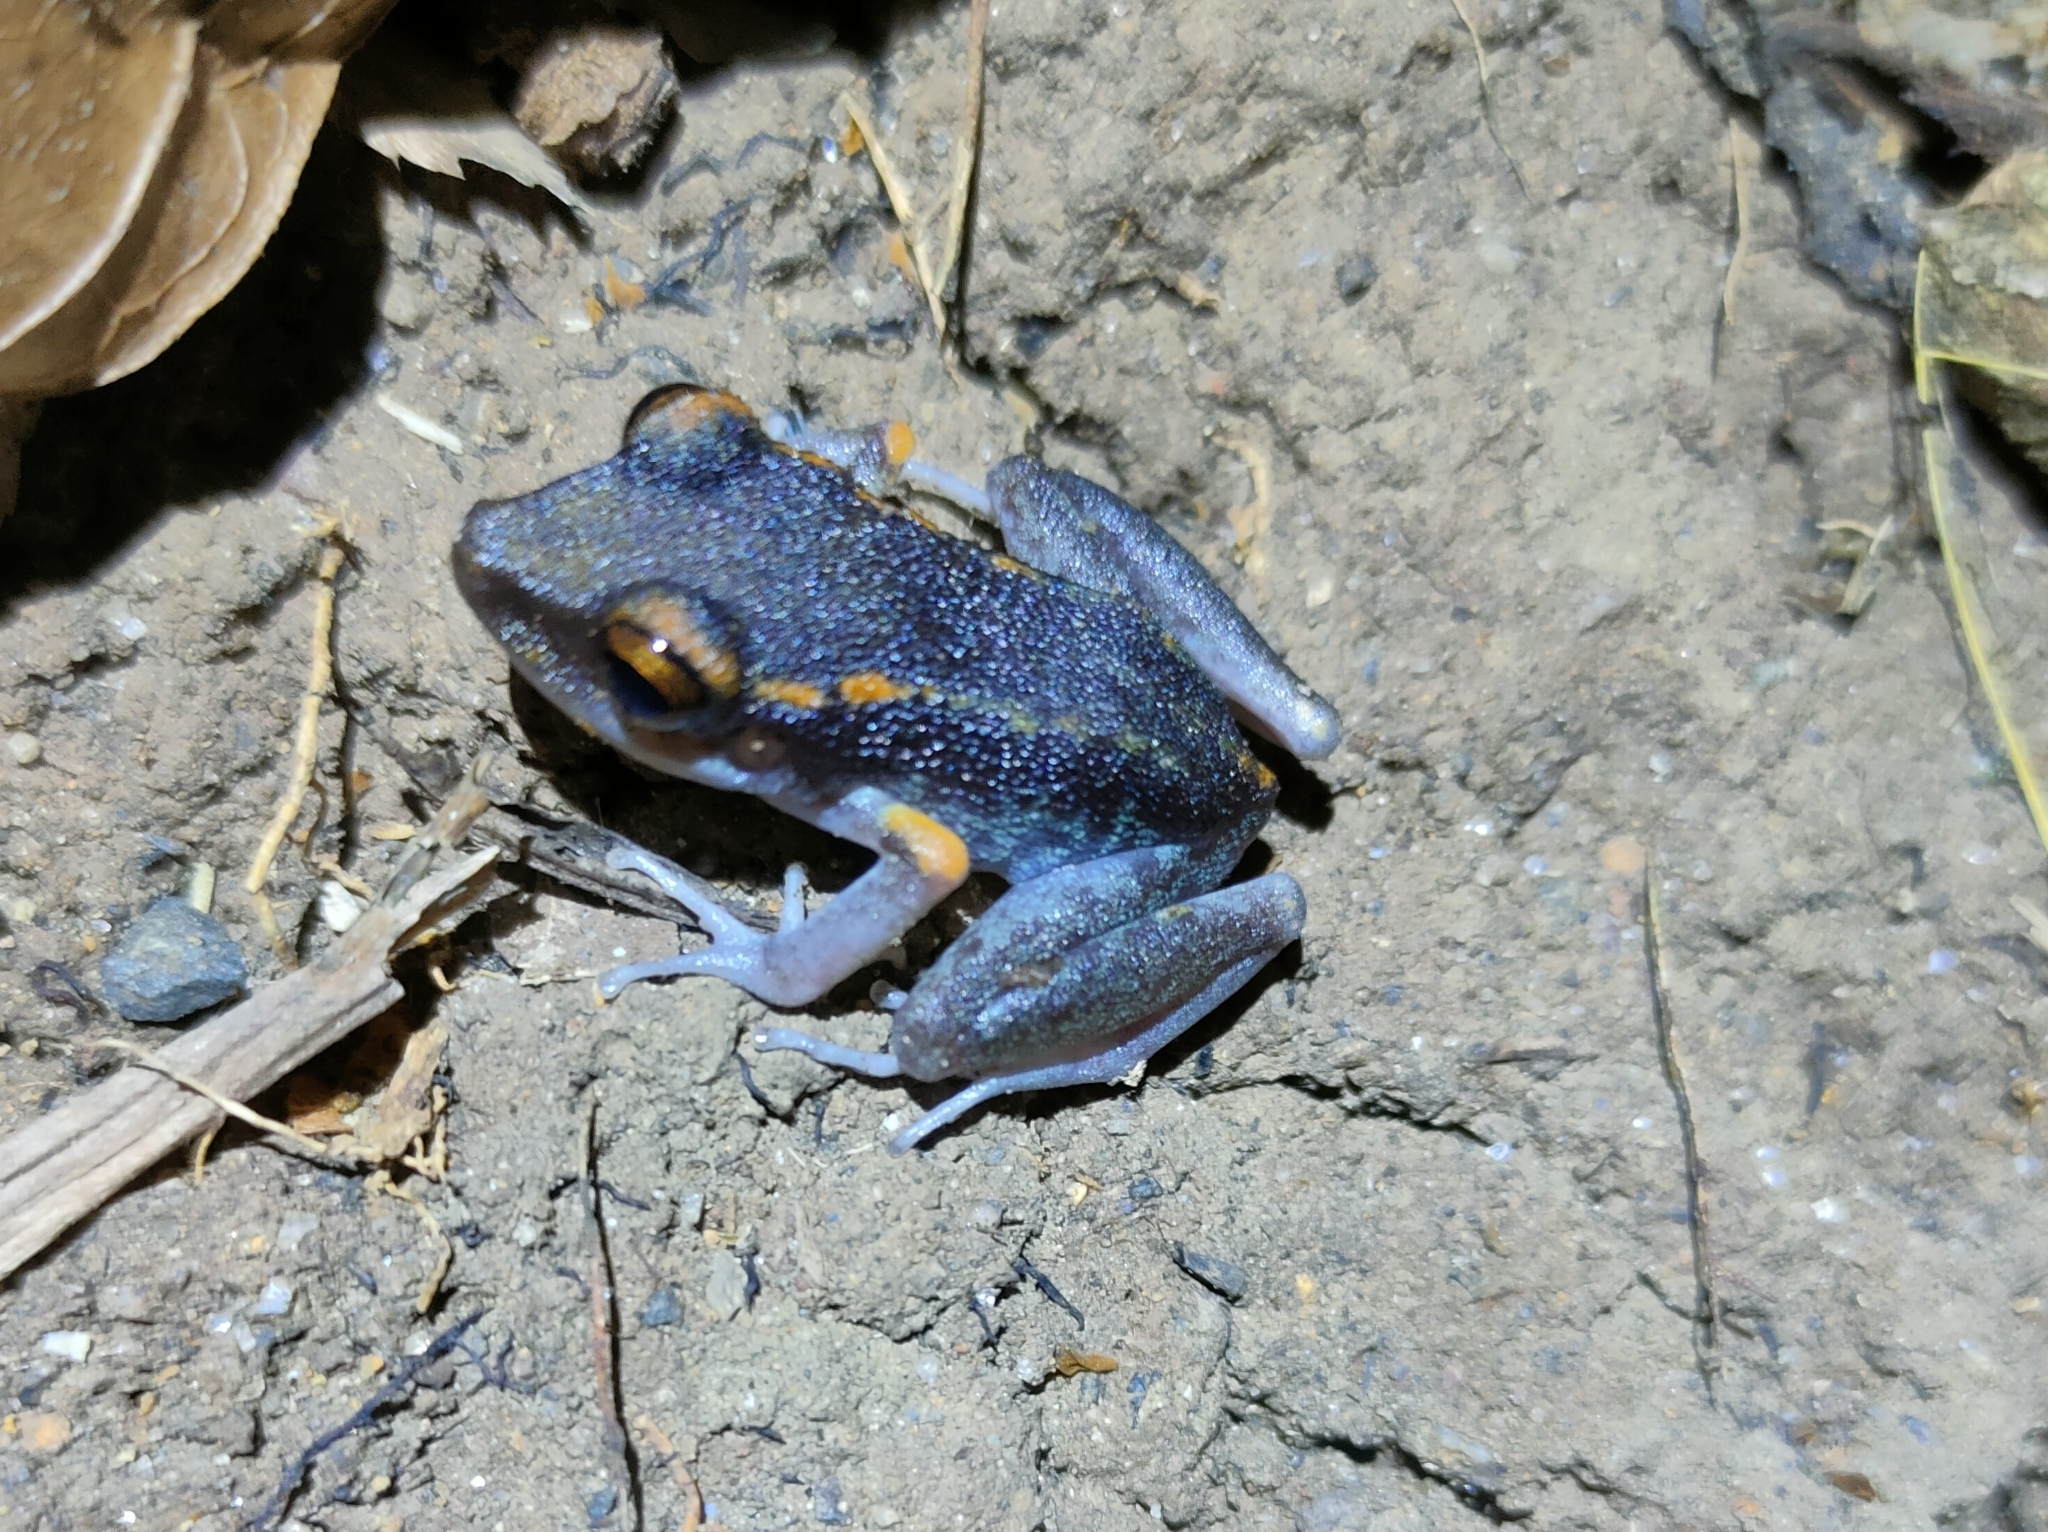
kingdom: Animalia
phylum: Chordata
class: Amphibia
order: Anura
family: Craugastoridae
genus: Pristimantis
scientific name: Pristimantis gaigei
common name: Fort randolph robber frog
